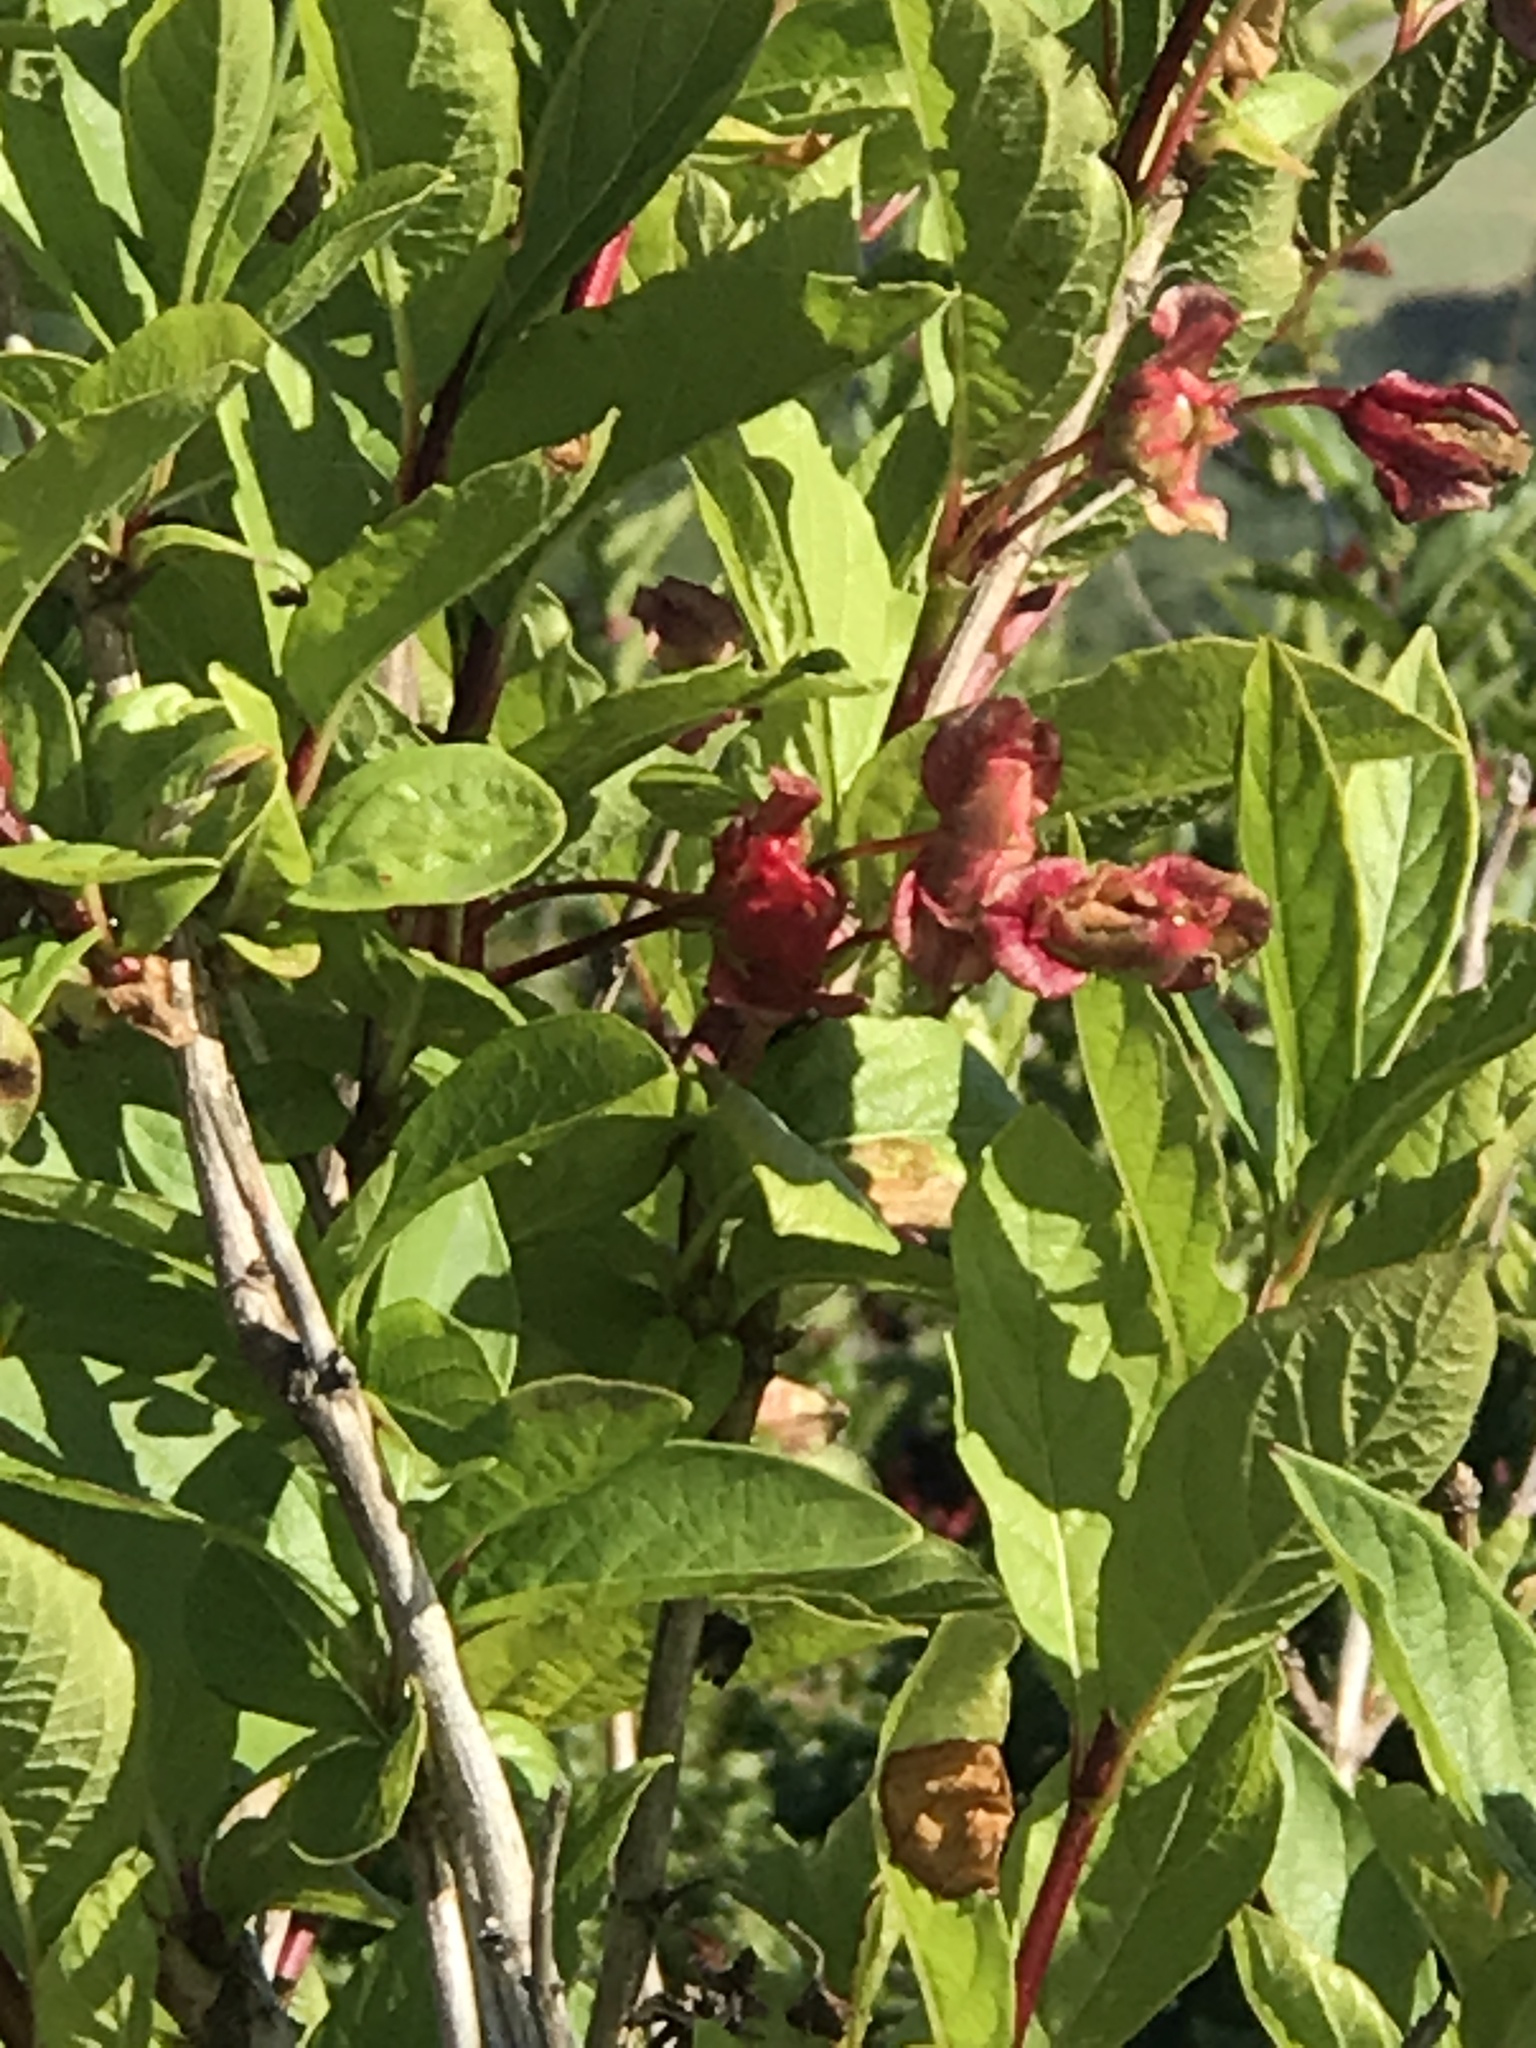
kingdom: Plantae
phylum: Tracheophyta
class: Magnoliopsida
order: Dipsacales
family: Caprifoliaceae
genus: Lonicera
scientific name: Lonicera involucrata
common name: Californian honeysuckle
